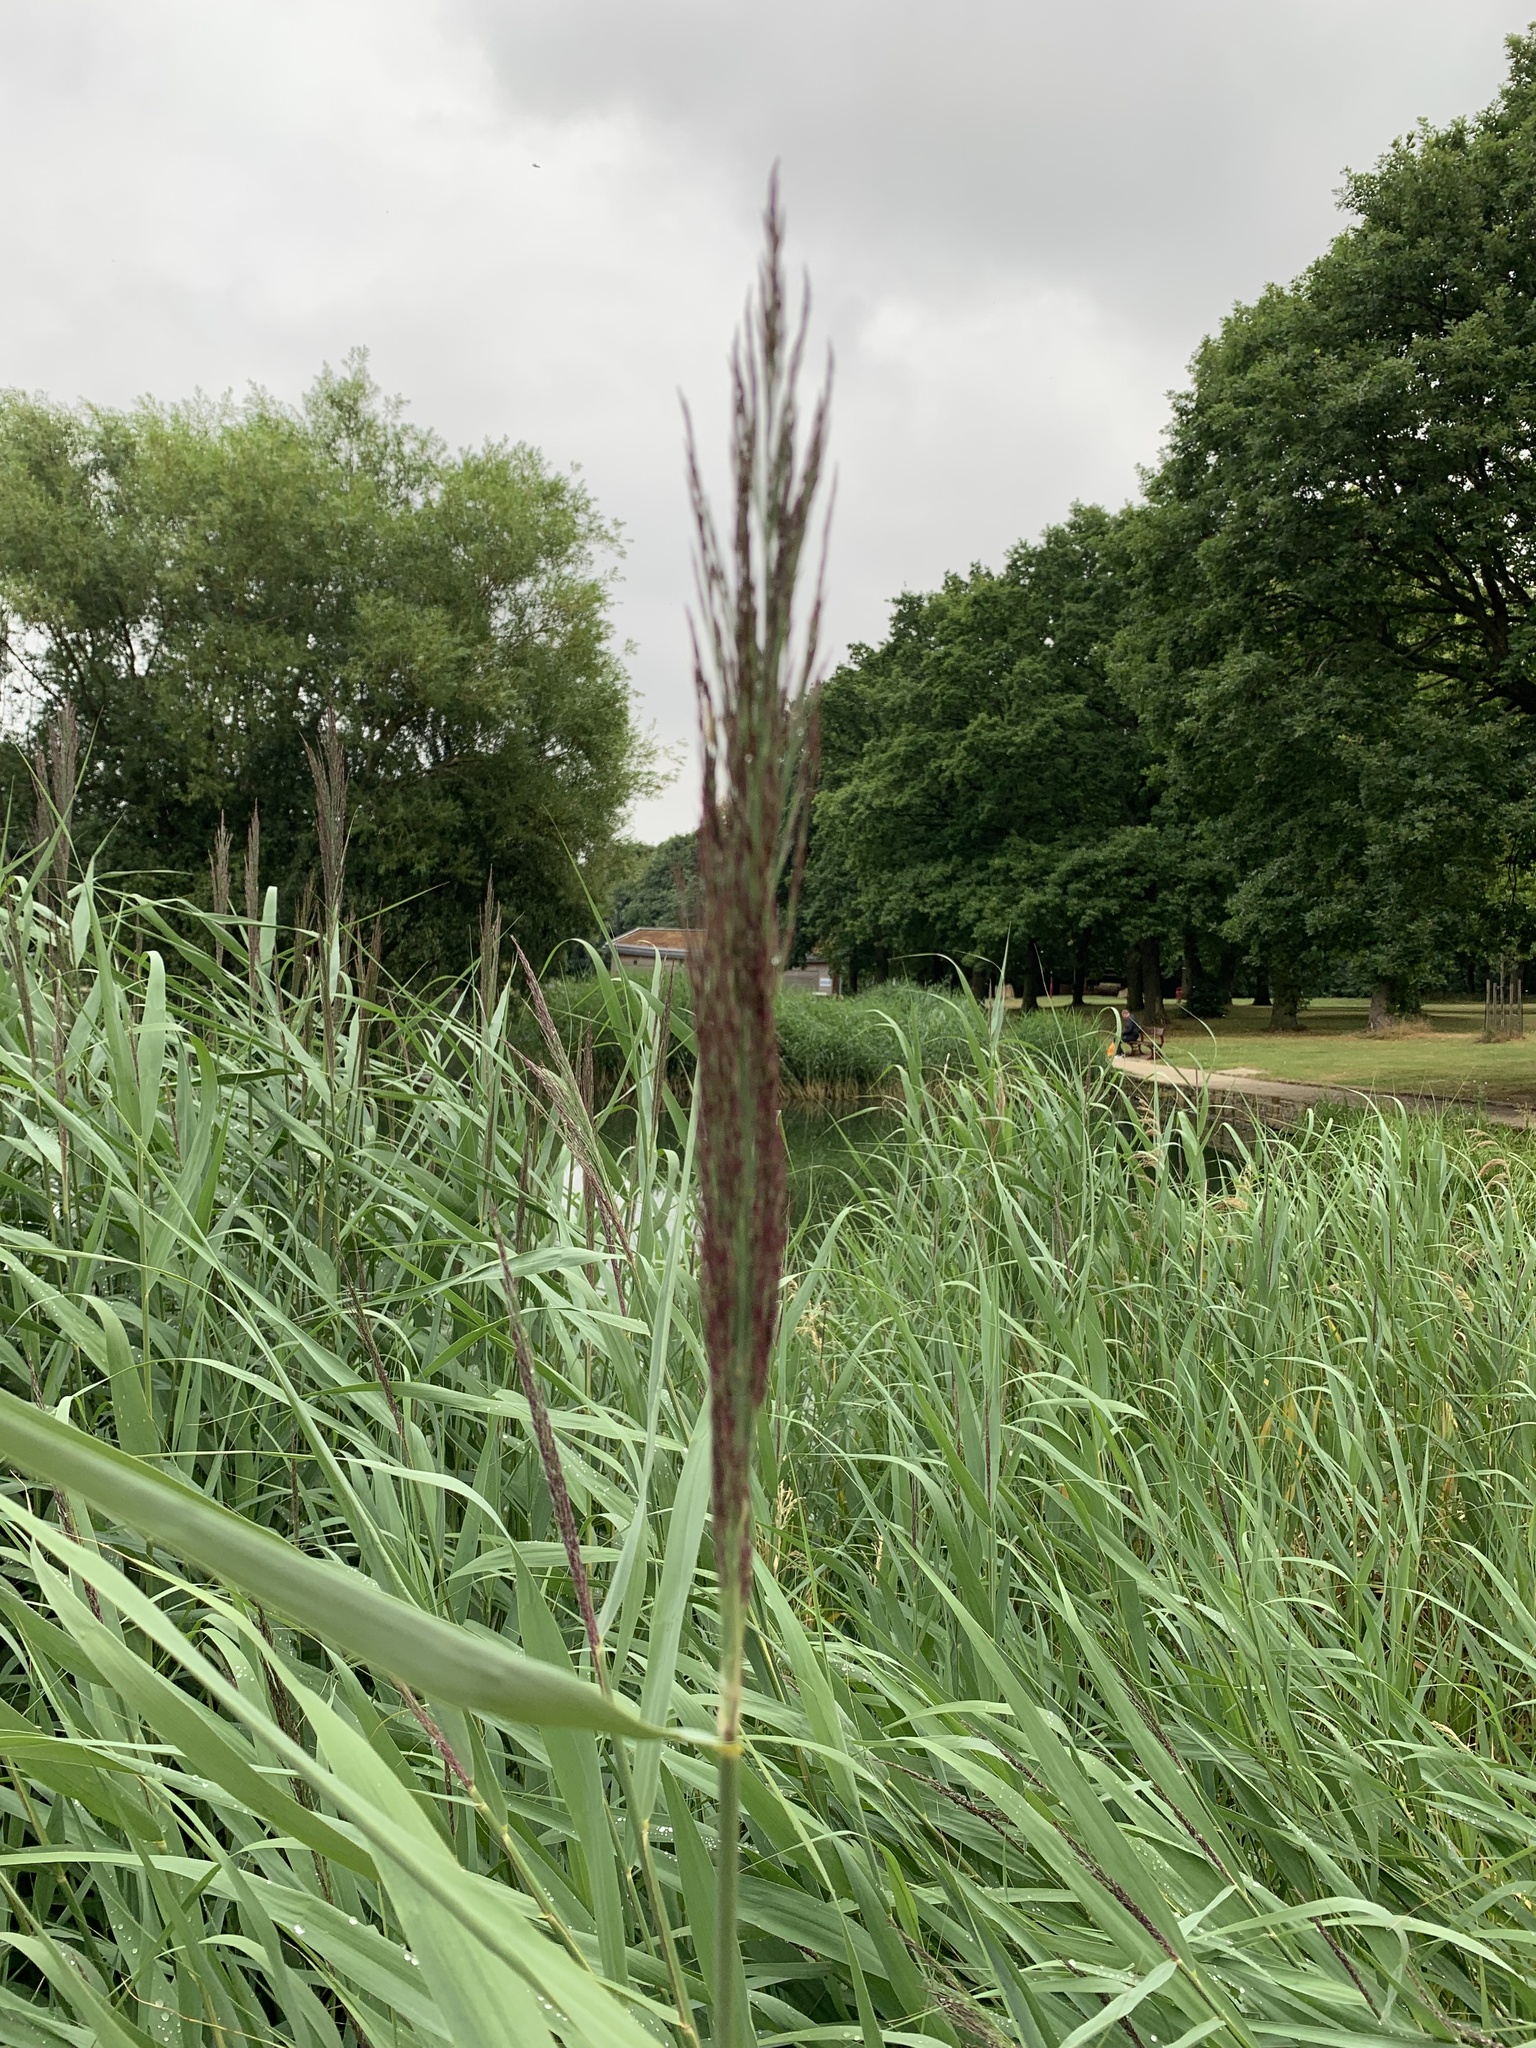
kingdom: Plantae
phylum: Tracheophyta
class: Liliopsida
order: Poales
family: Poaceae
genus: Phragmites
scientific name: Phragmites australis
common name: Common reed
